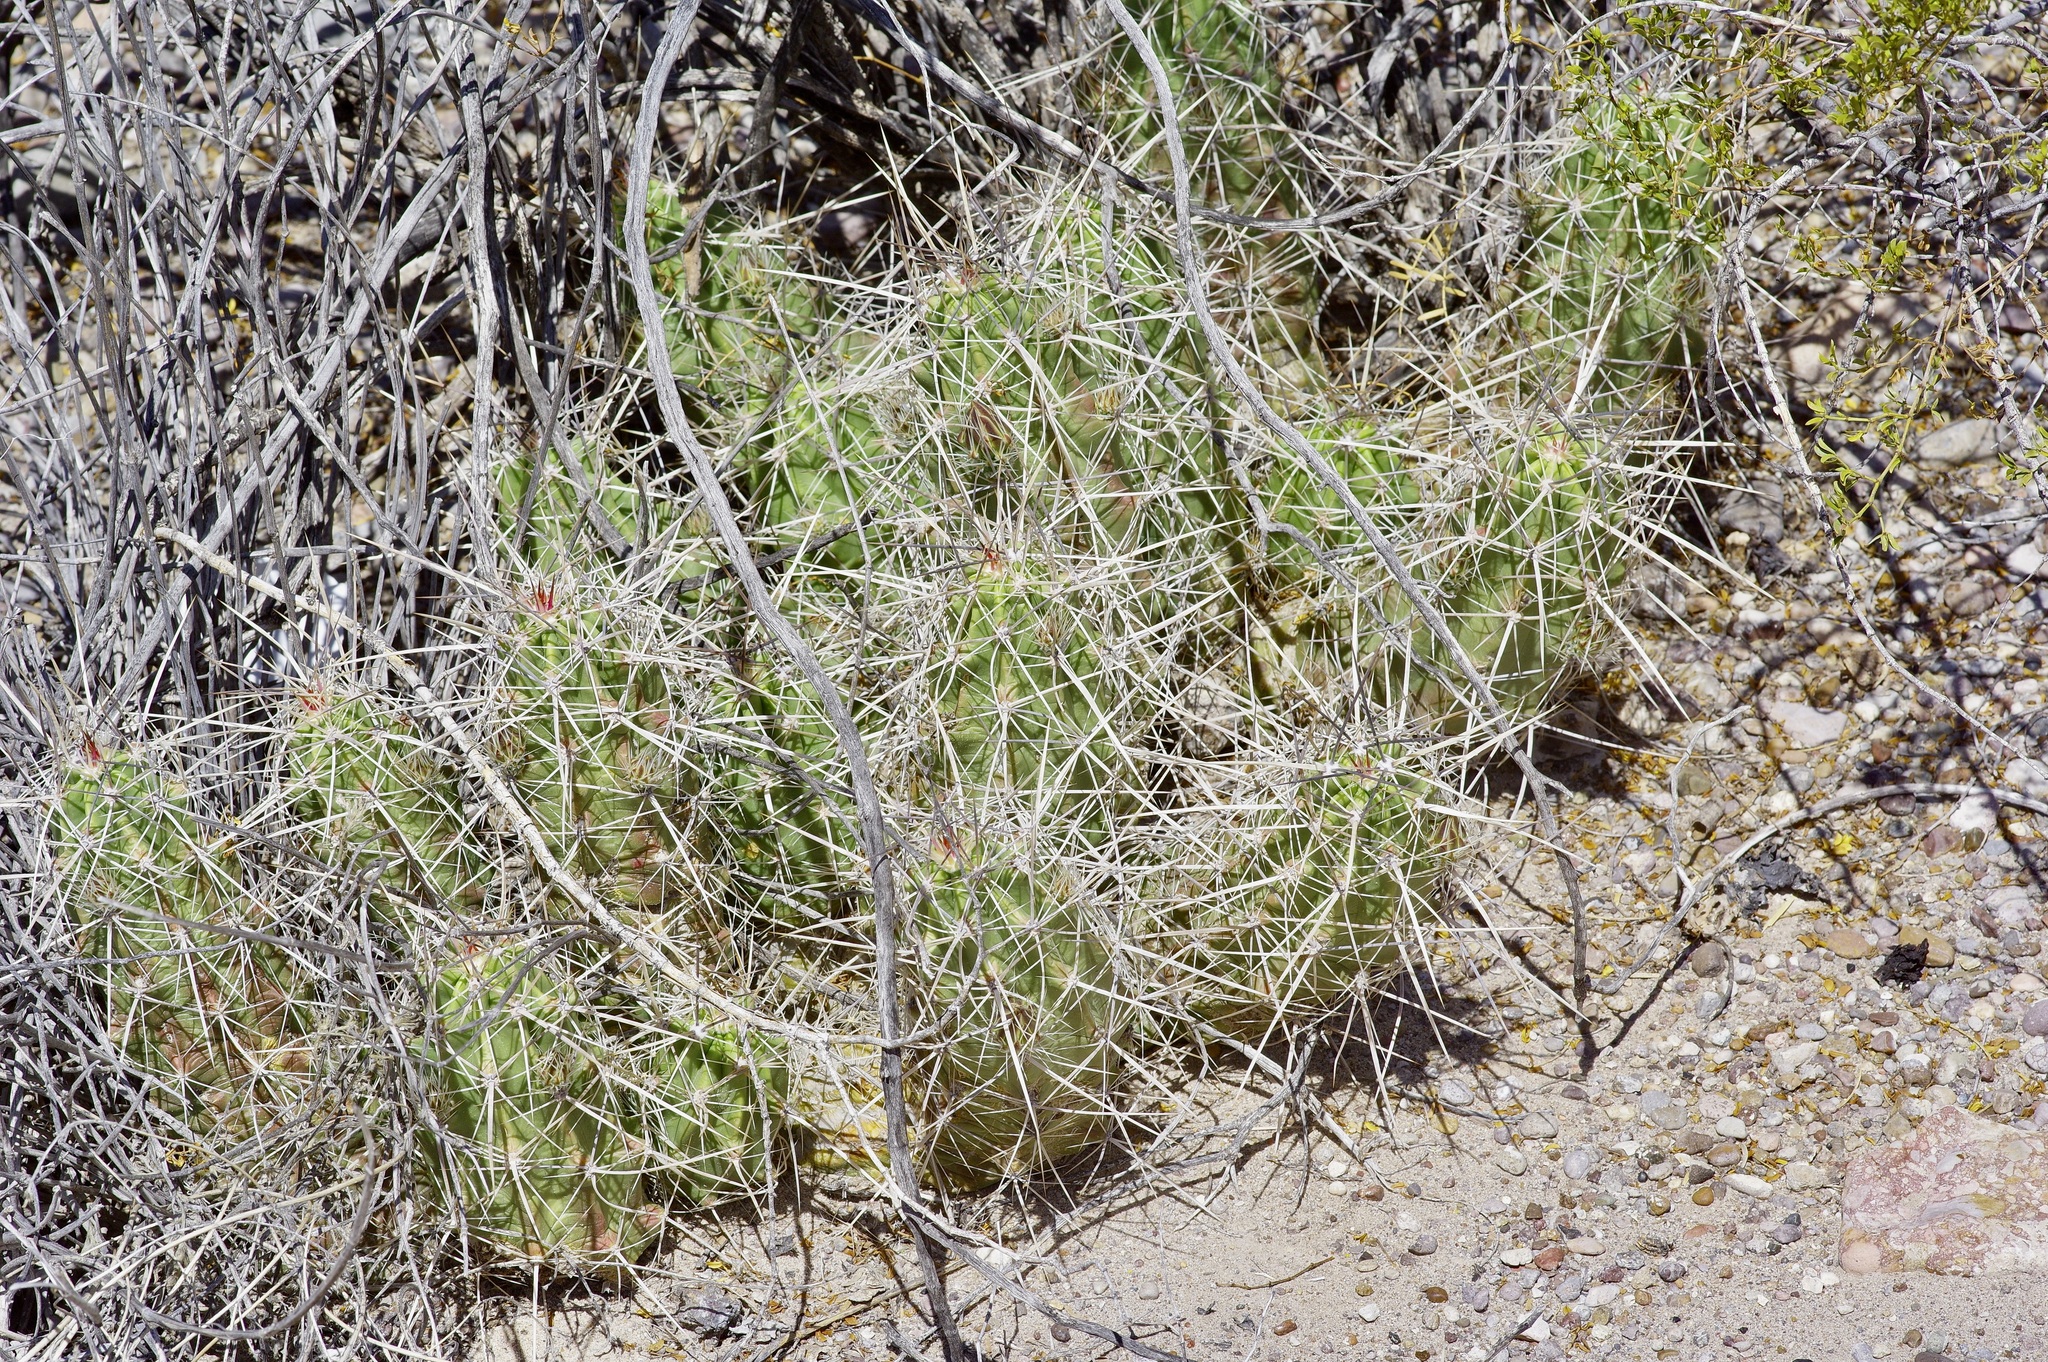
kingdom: Plantae
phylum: Tracheophyta
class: Magnoliopsida
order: Caryophyllales
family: Cactaceae
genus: Echinocereus
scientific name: Echinocereus enneacanthus
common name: Pitaya
